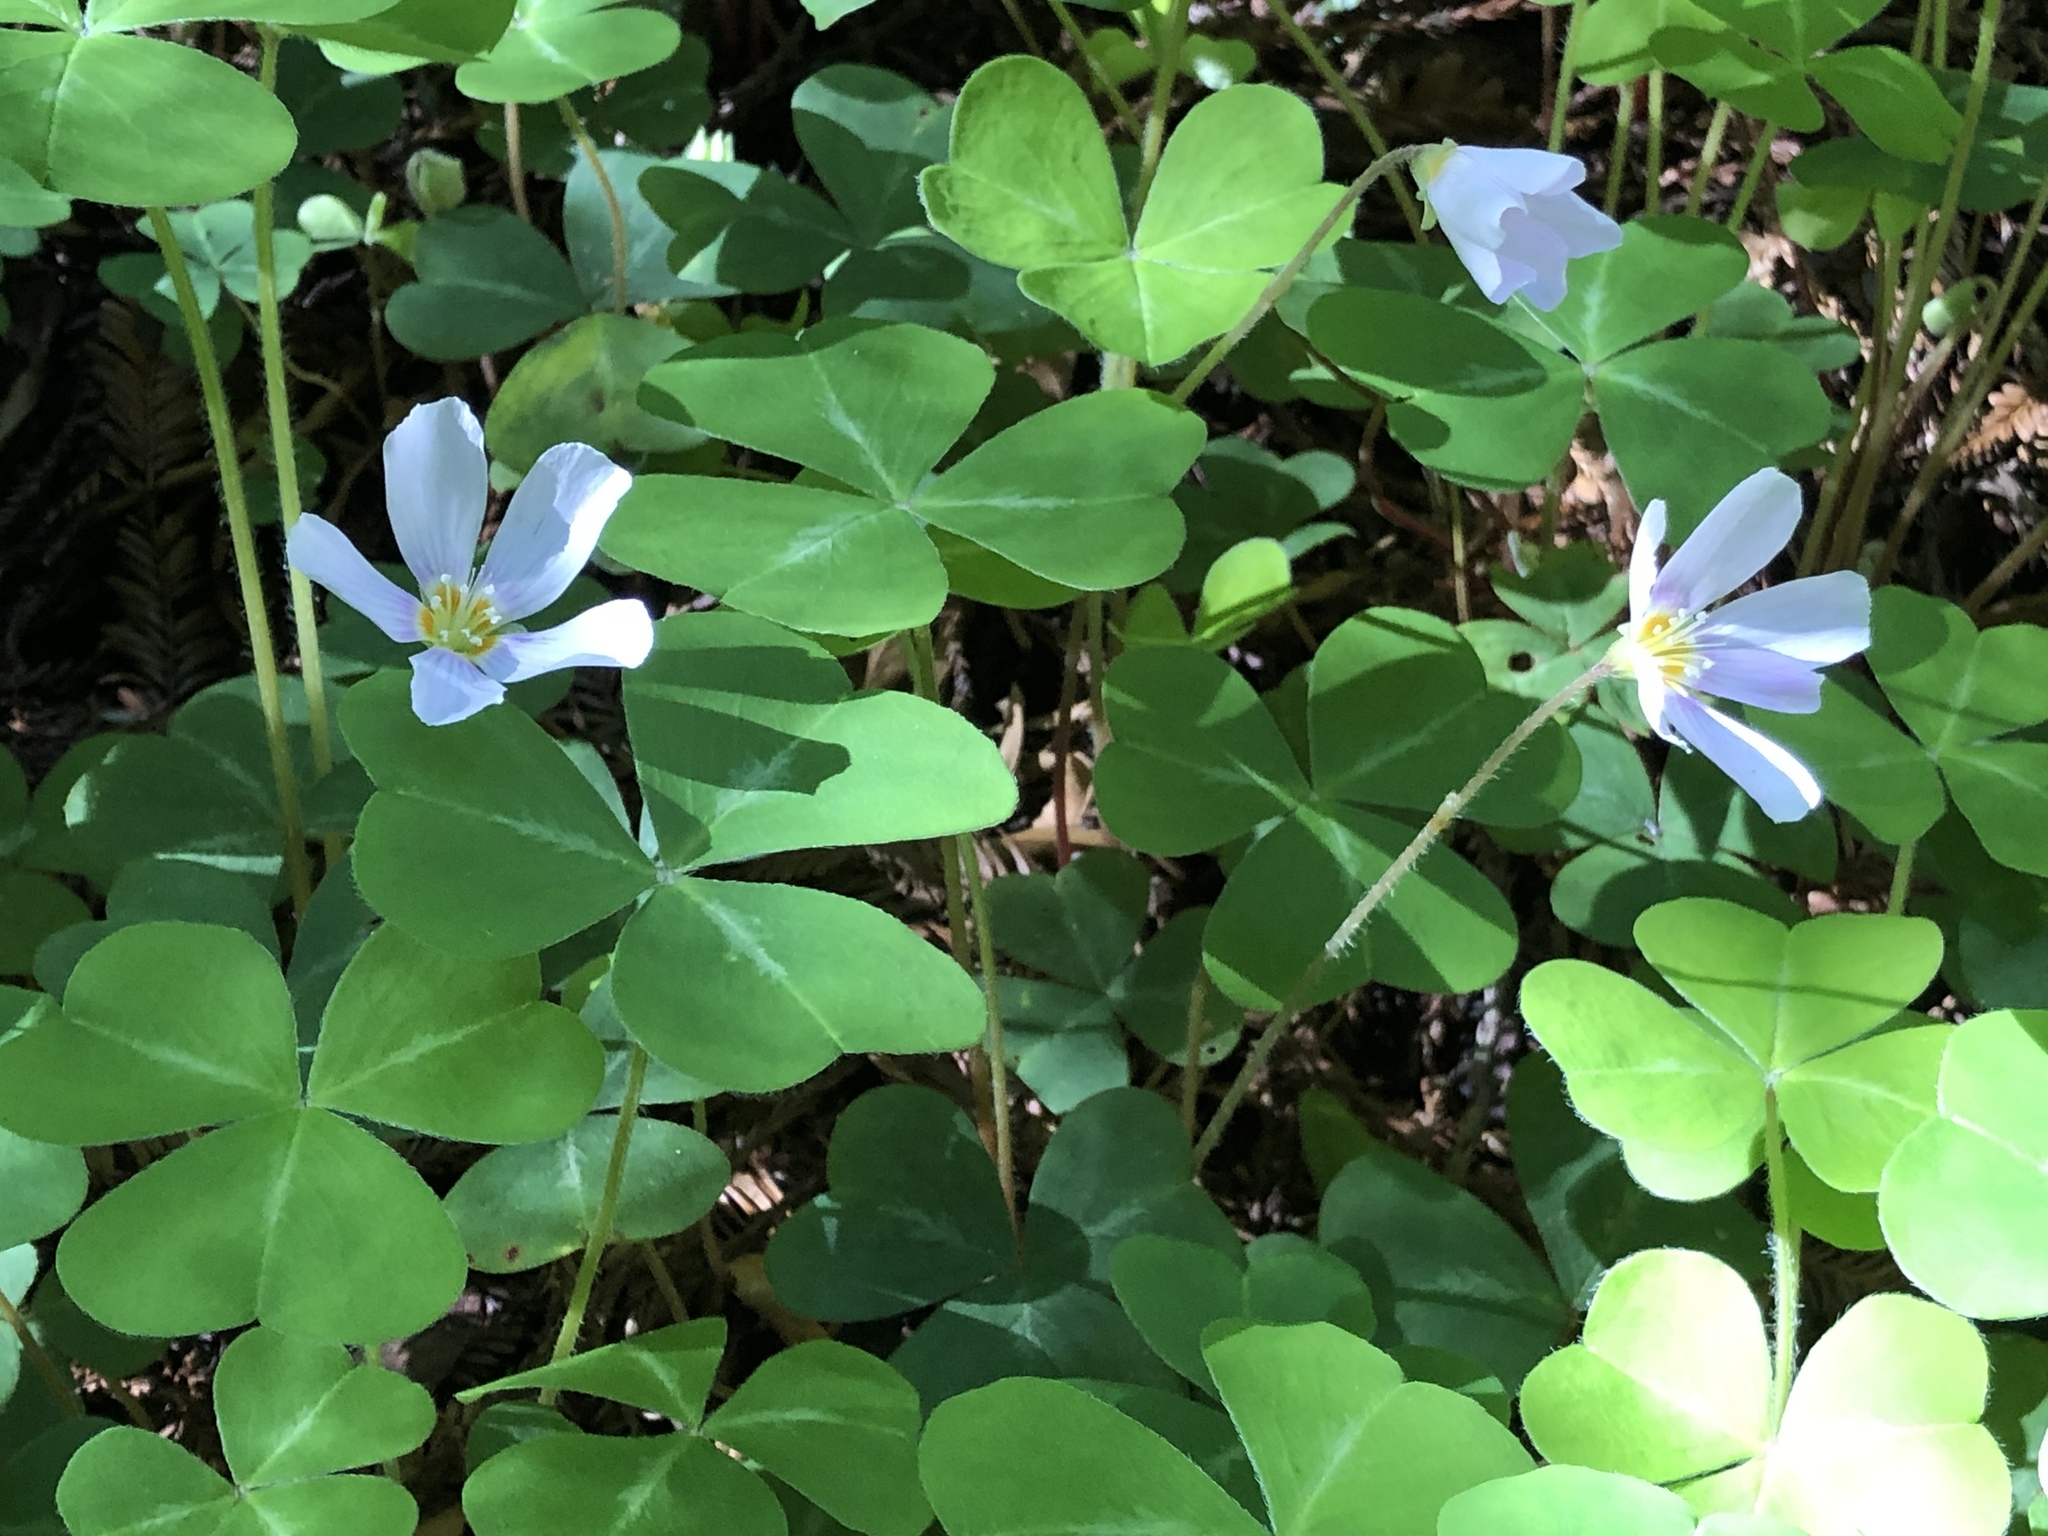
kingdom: Plantae
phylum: Tracheophyta
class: Magnoliopsida
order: Oxalidales
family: Oxalidaceae
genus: Oxalis
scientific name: Oxalis oregana
